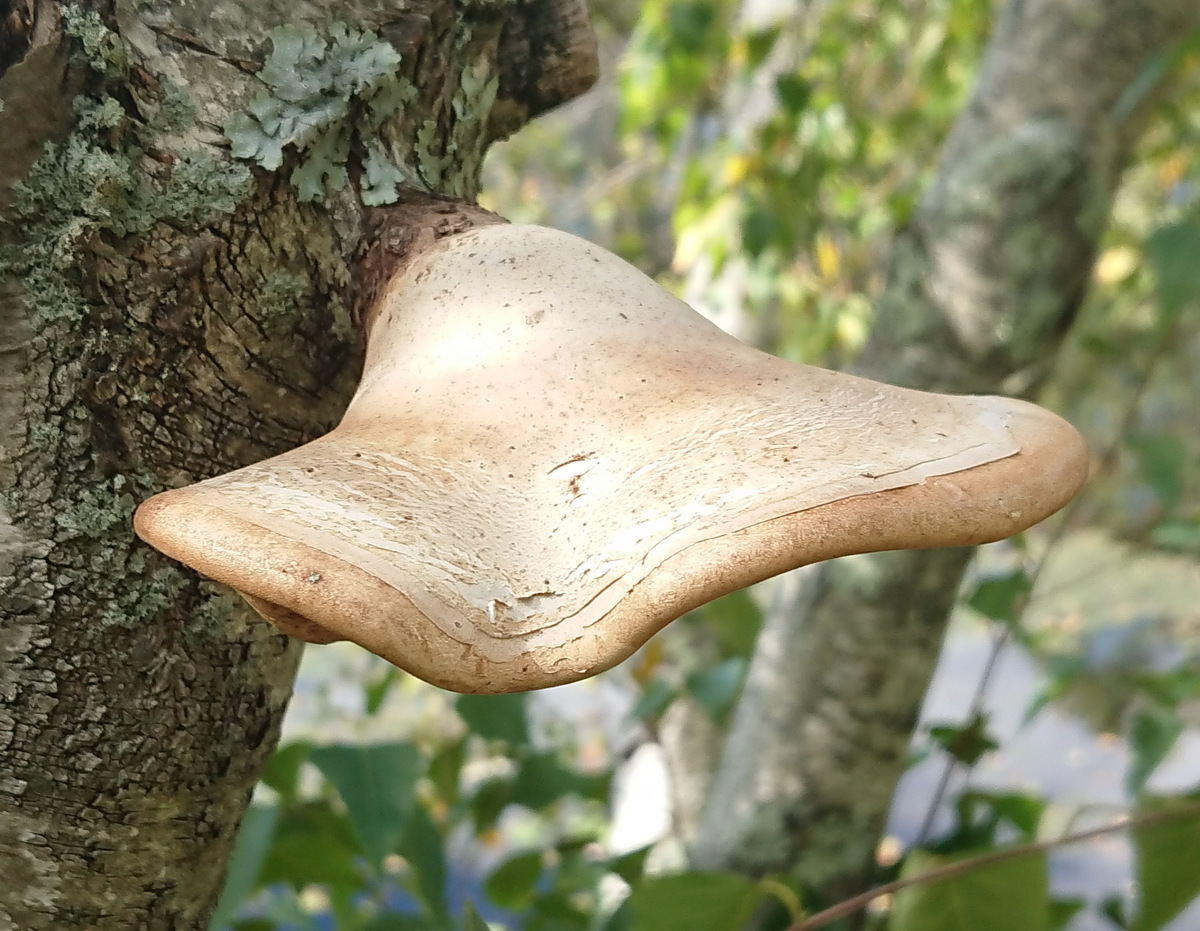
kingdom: Fungi
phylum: Basidiomycota
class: Agaricomycetes
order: Polyporales
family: Fomitopsidaceae
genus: Fomitopsis
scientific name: Fomitopsis betulina
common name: Birch polypore
